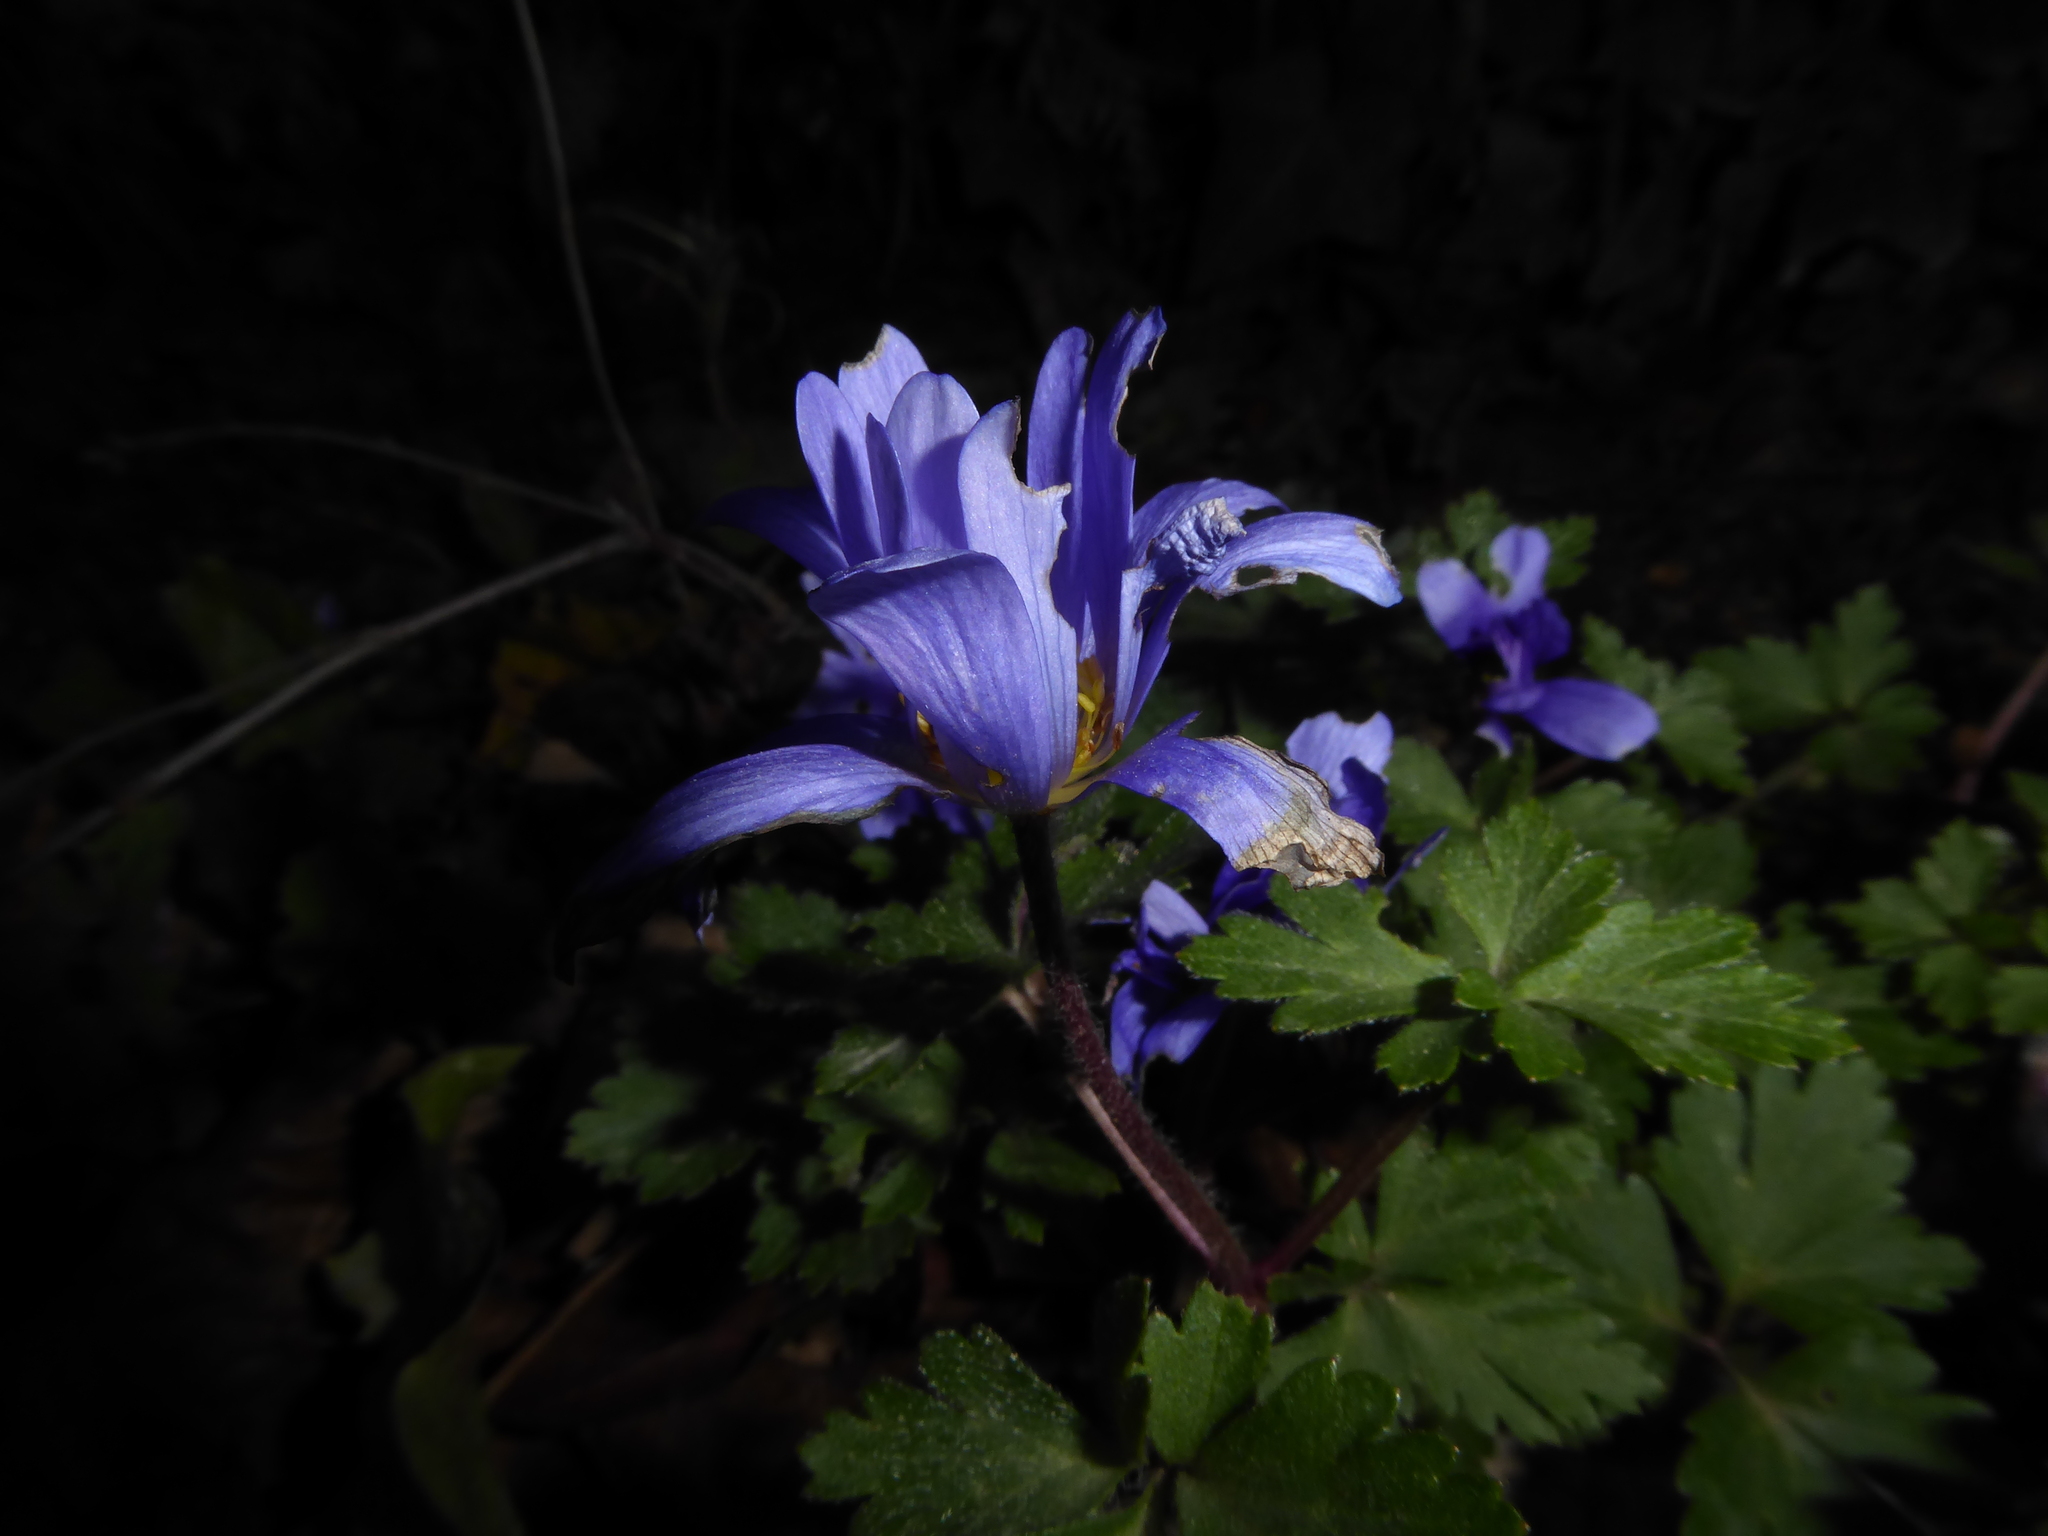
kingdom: Plantae
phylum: Tracheophyta
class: Magnoliopsida
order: Ranunculales
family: Ranunculaceae
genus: Anemone
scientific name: Anemone blanda
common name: Balkan anemone
